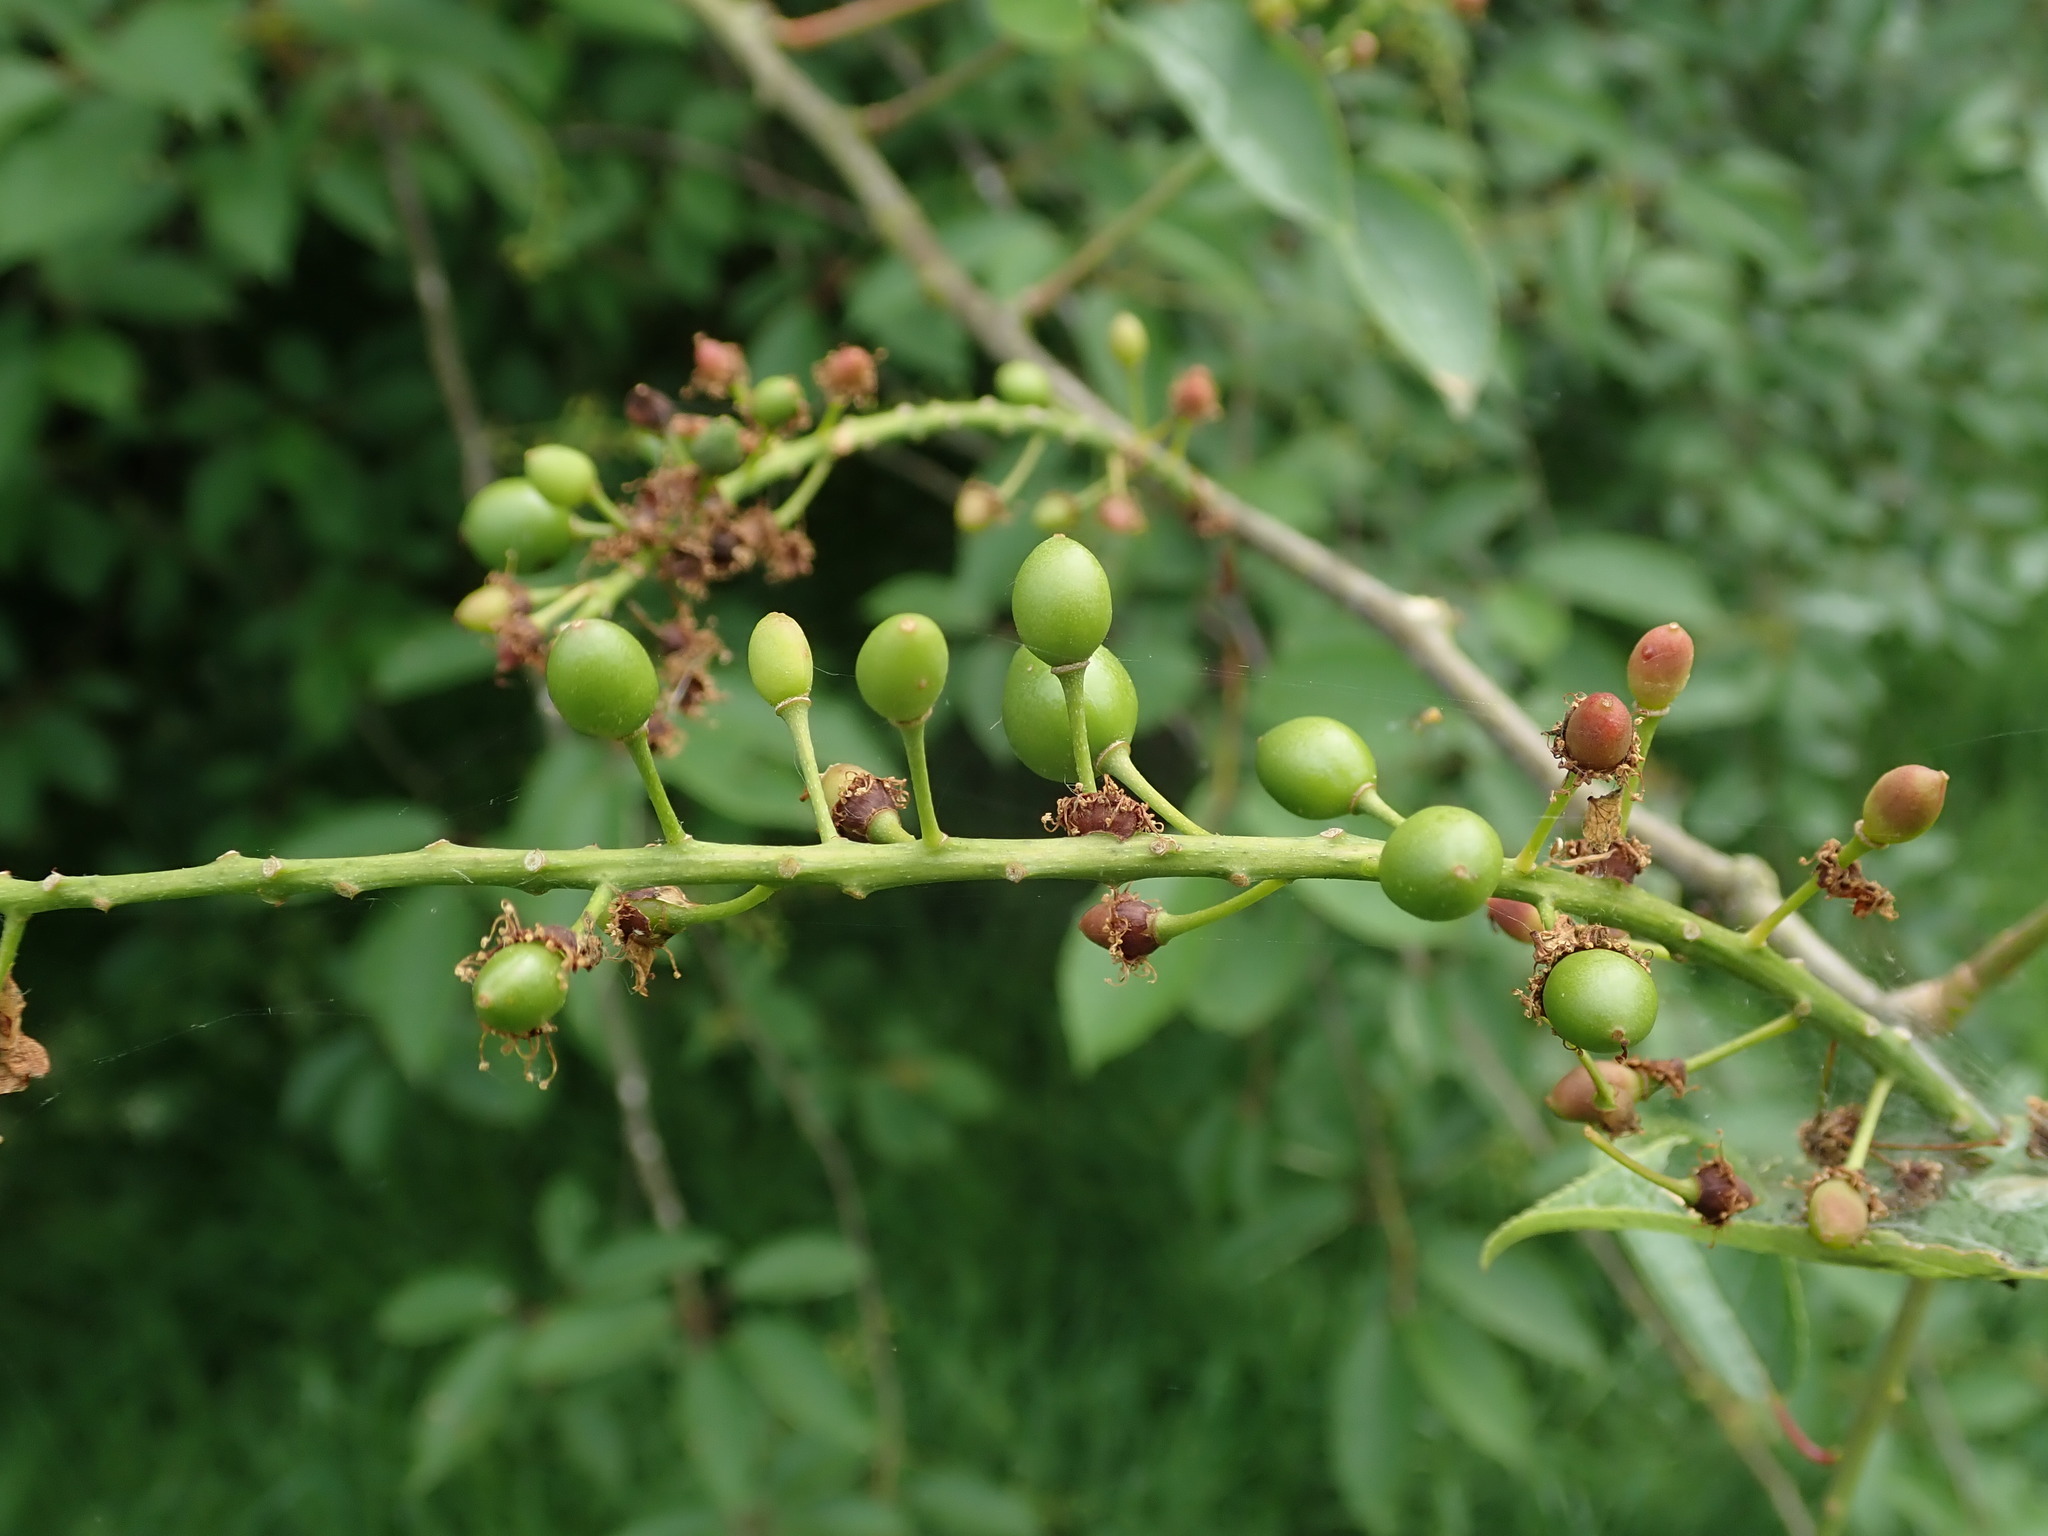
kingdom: Plantae
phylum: Tracheophyta
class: Magnoliopsida
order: Rosales
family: Rosaceae
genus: Prunus
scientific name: Prunus padus
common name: Bird cherry
